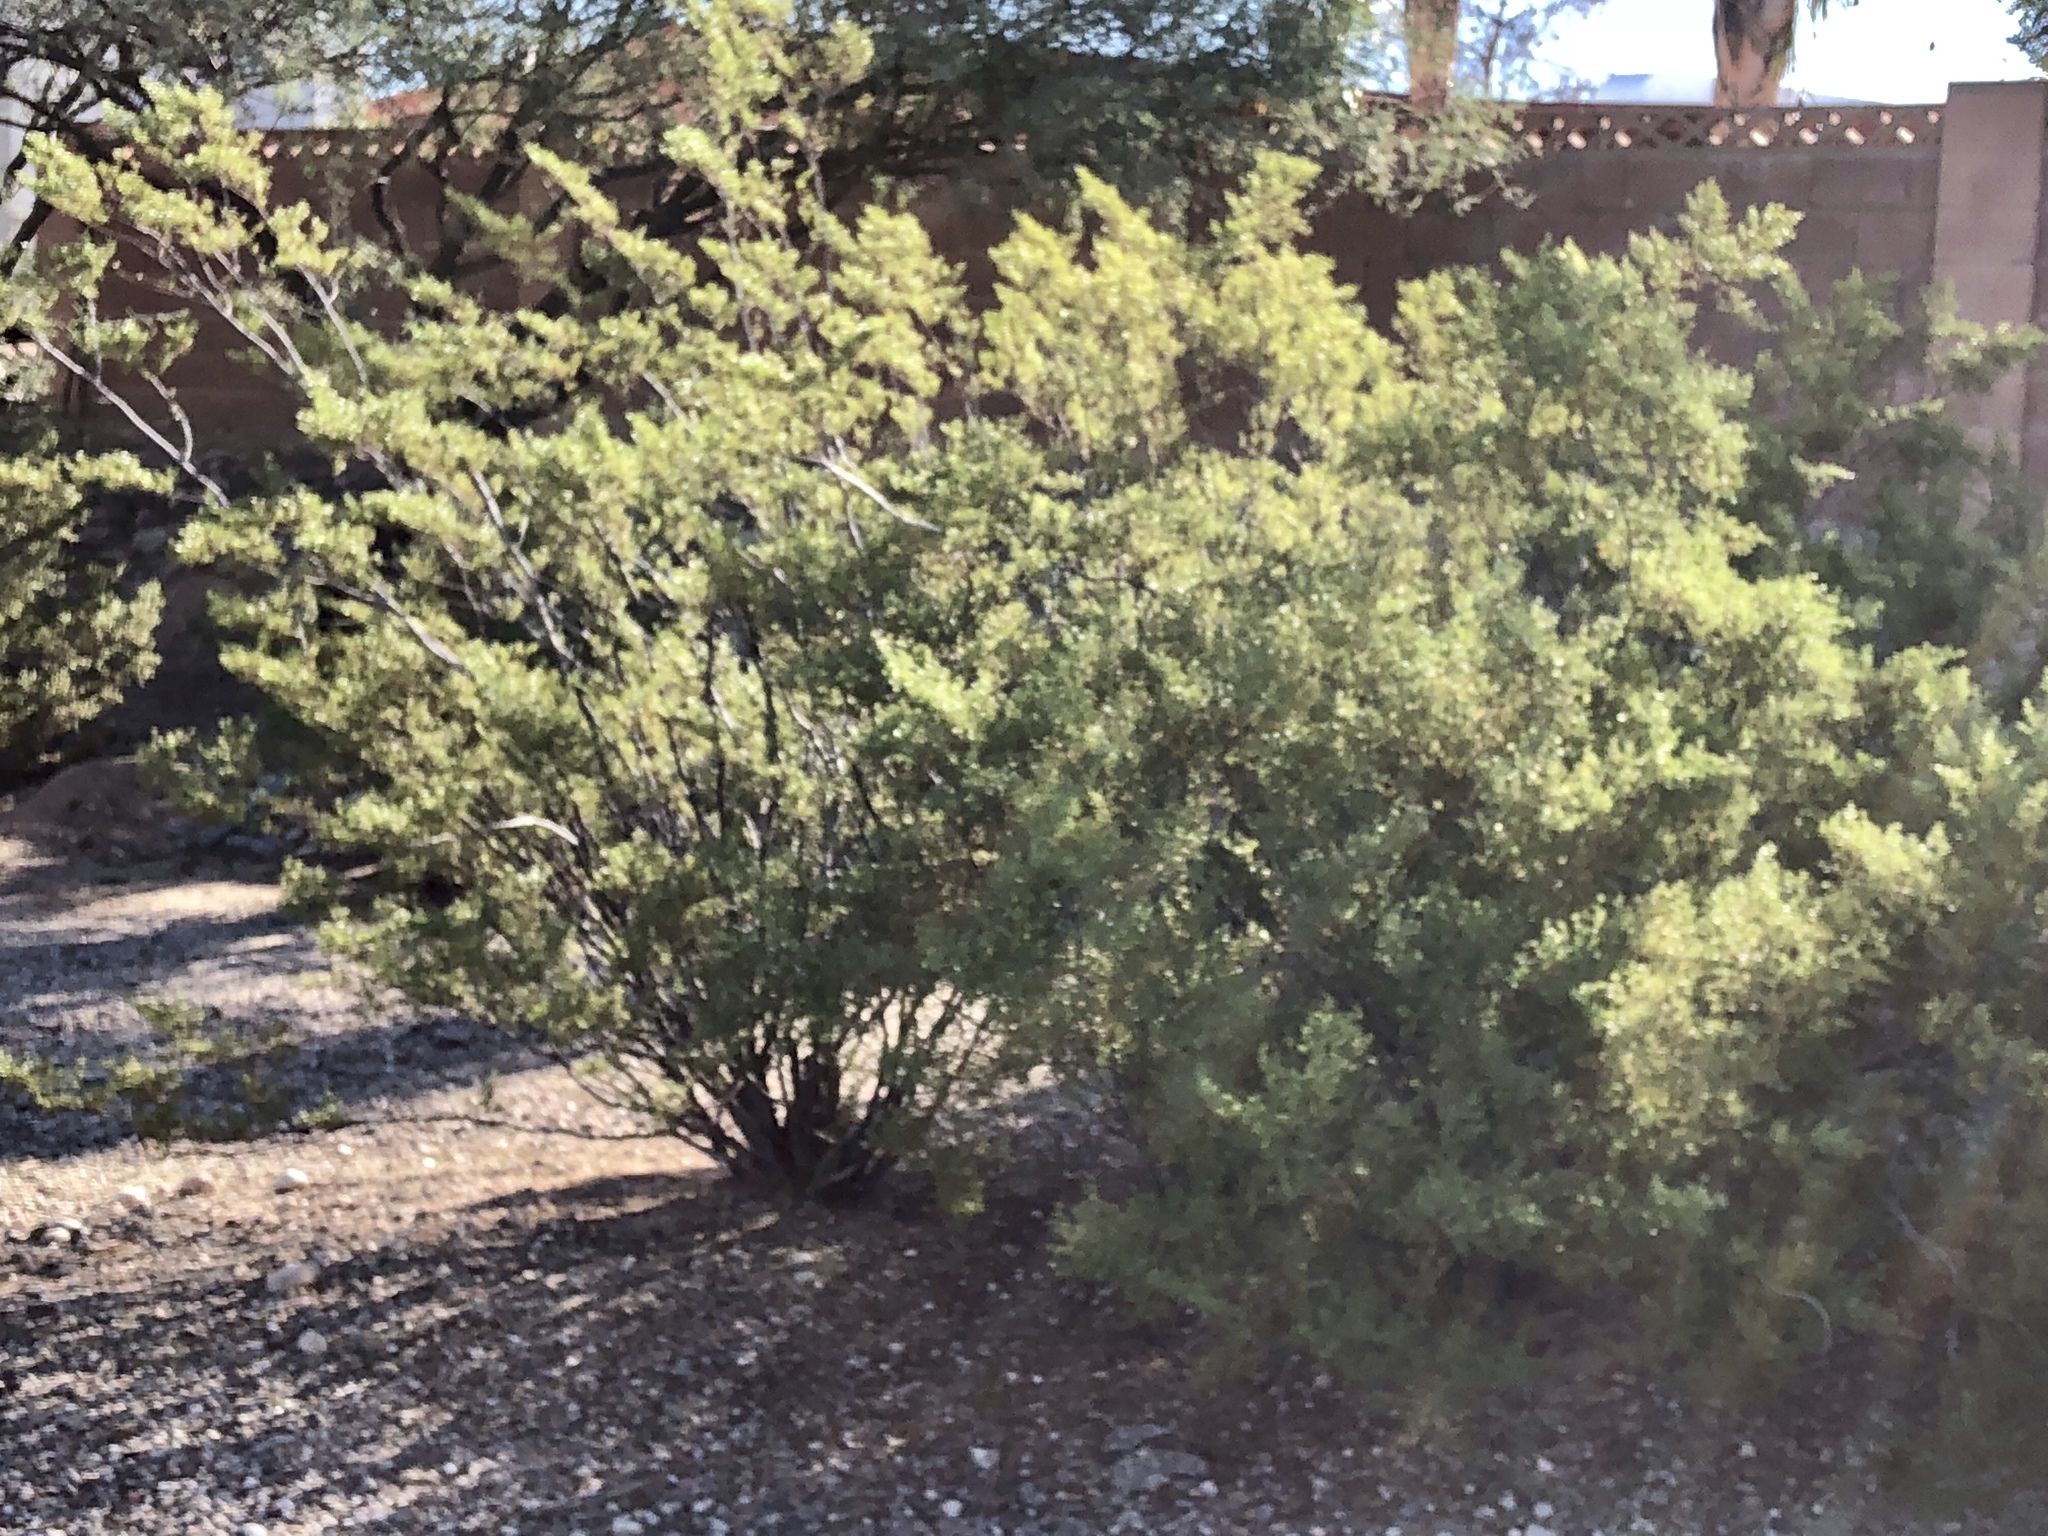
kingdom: Plantae
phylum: Tracheophyta
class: Magnoliopsida
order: Zygophyllales
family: Zygophyllaceae
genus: Larrea
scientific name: Larrea tridentata
